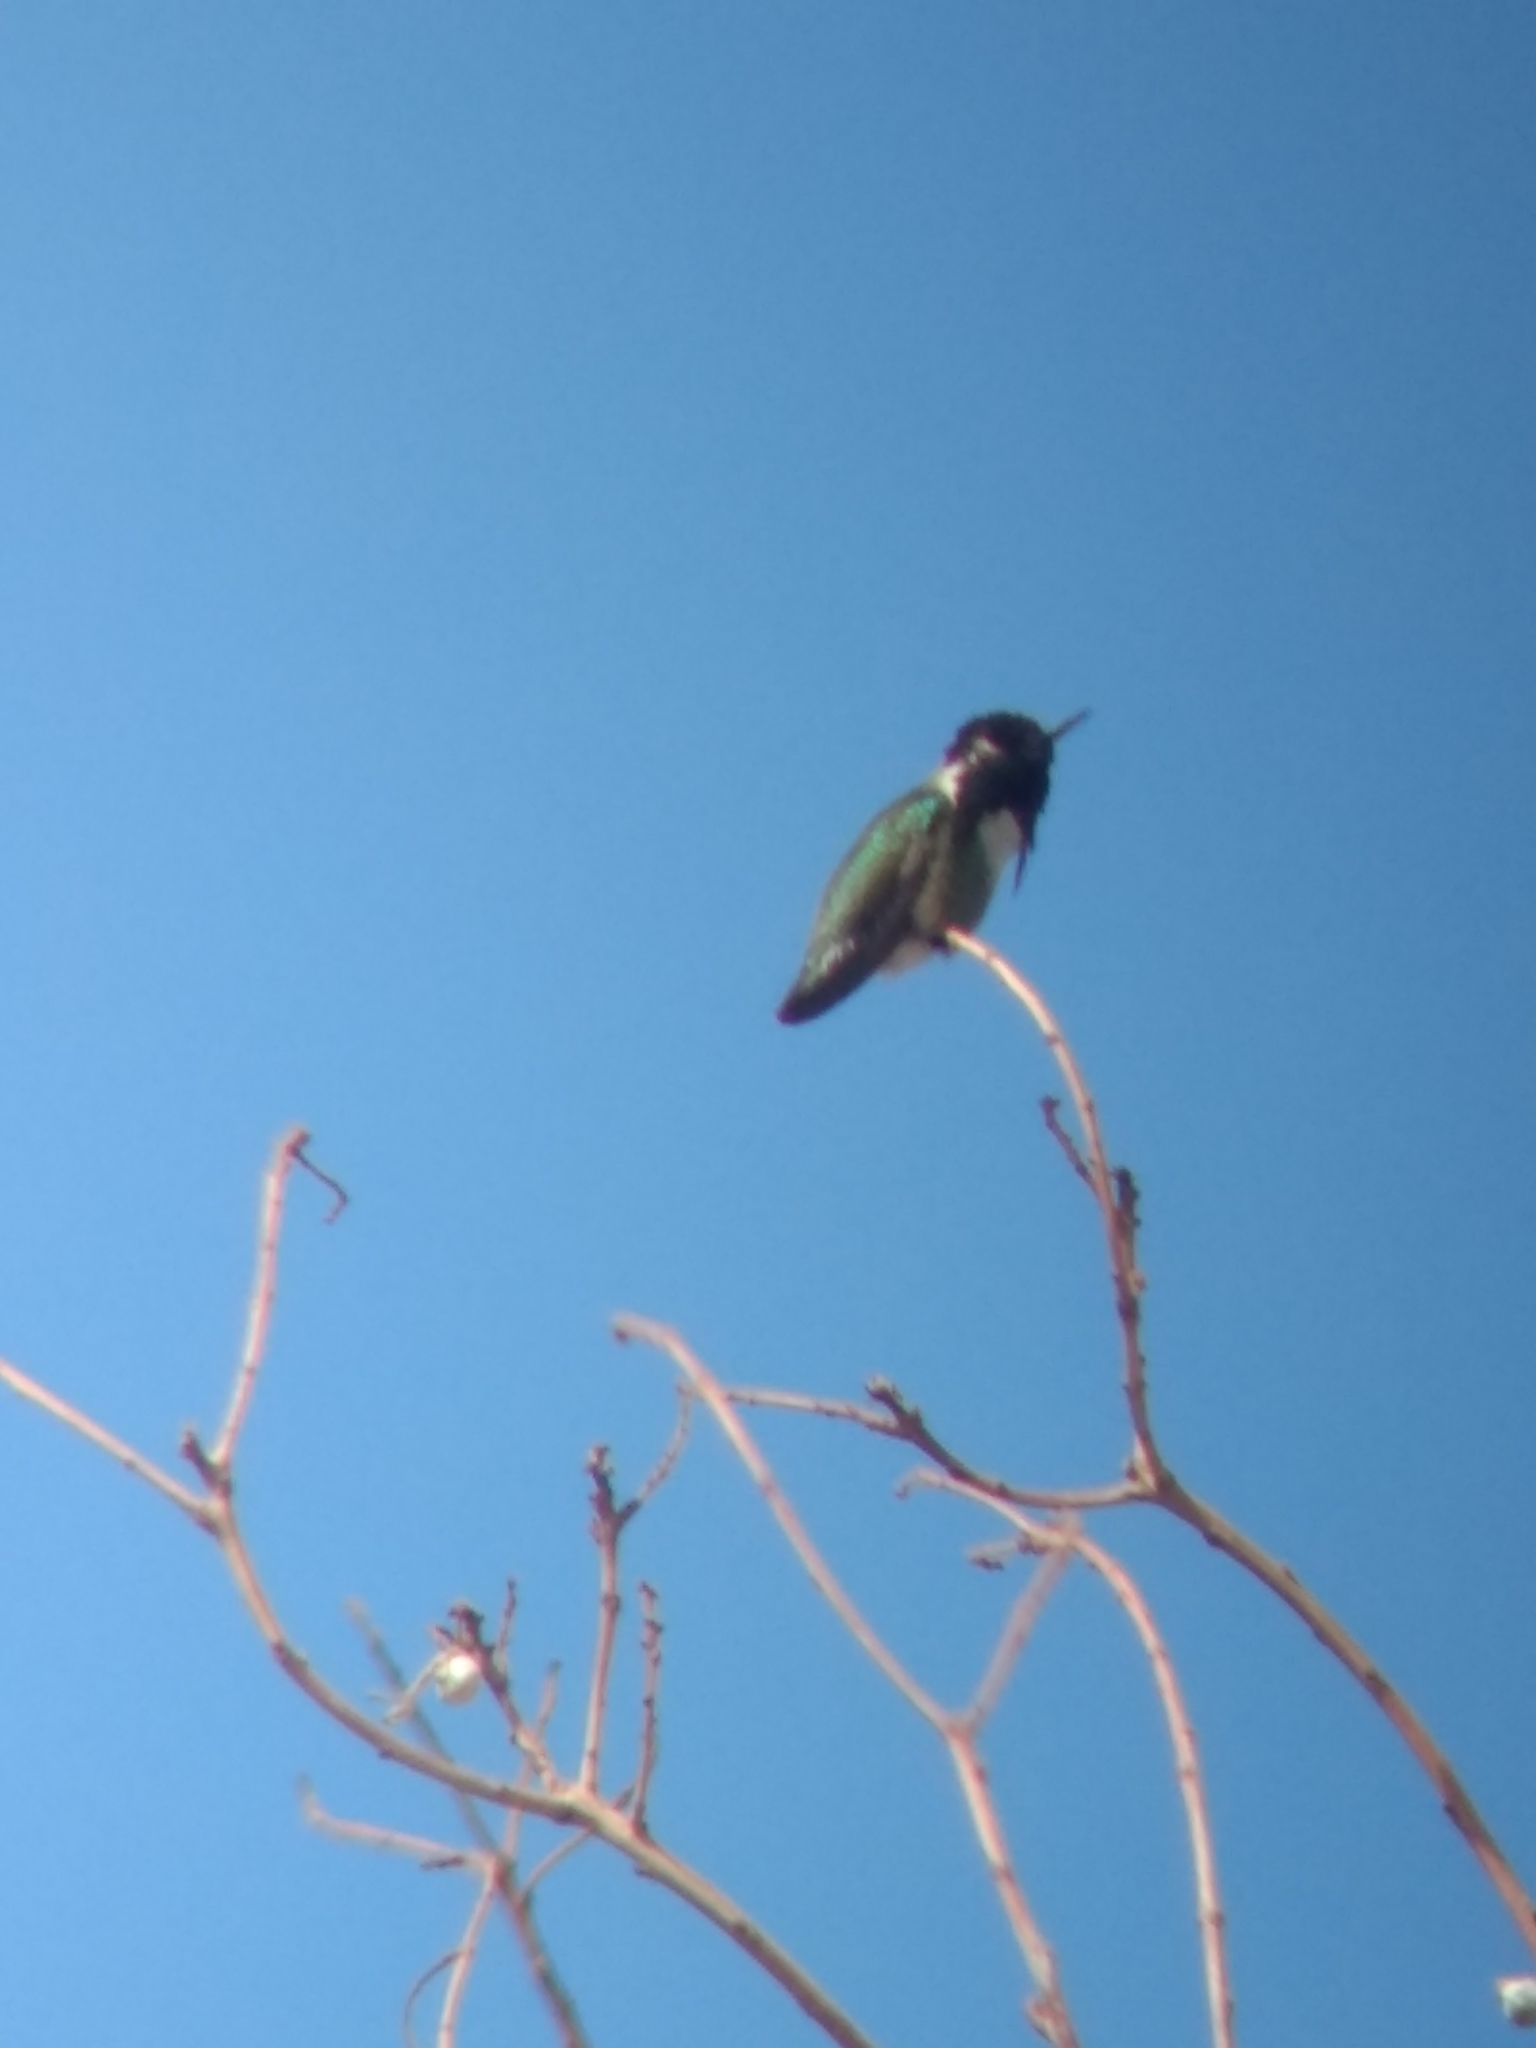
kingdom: Animalia
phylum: Chordata
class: Aves
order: Apodiformes
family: Trochilidae
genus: Calypte
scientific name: Calypte costae
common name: Costa's hummingbird
